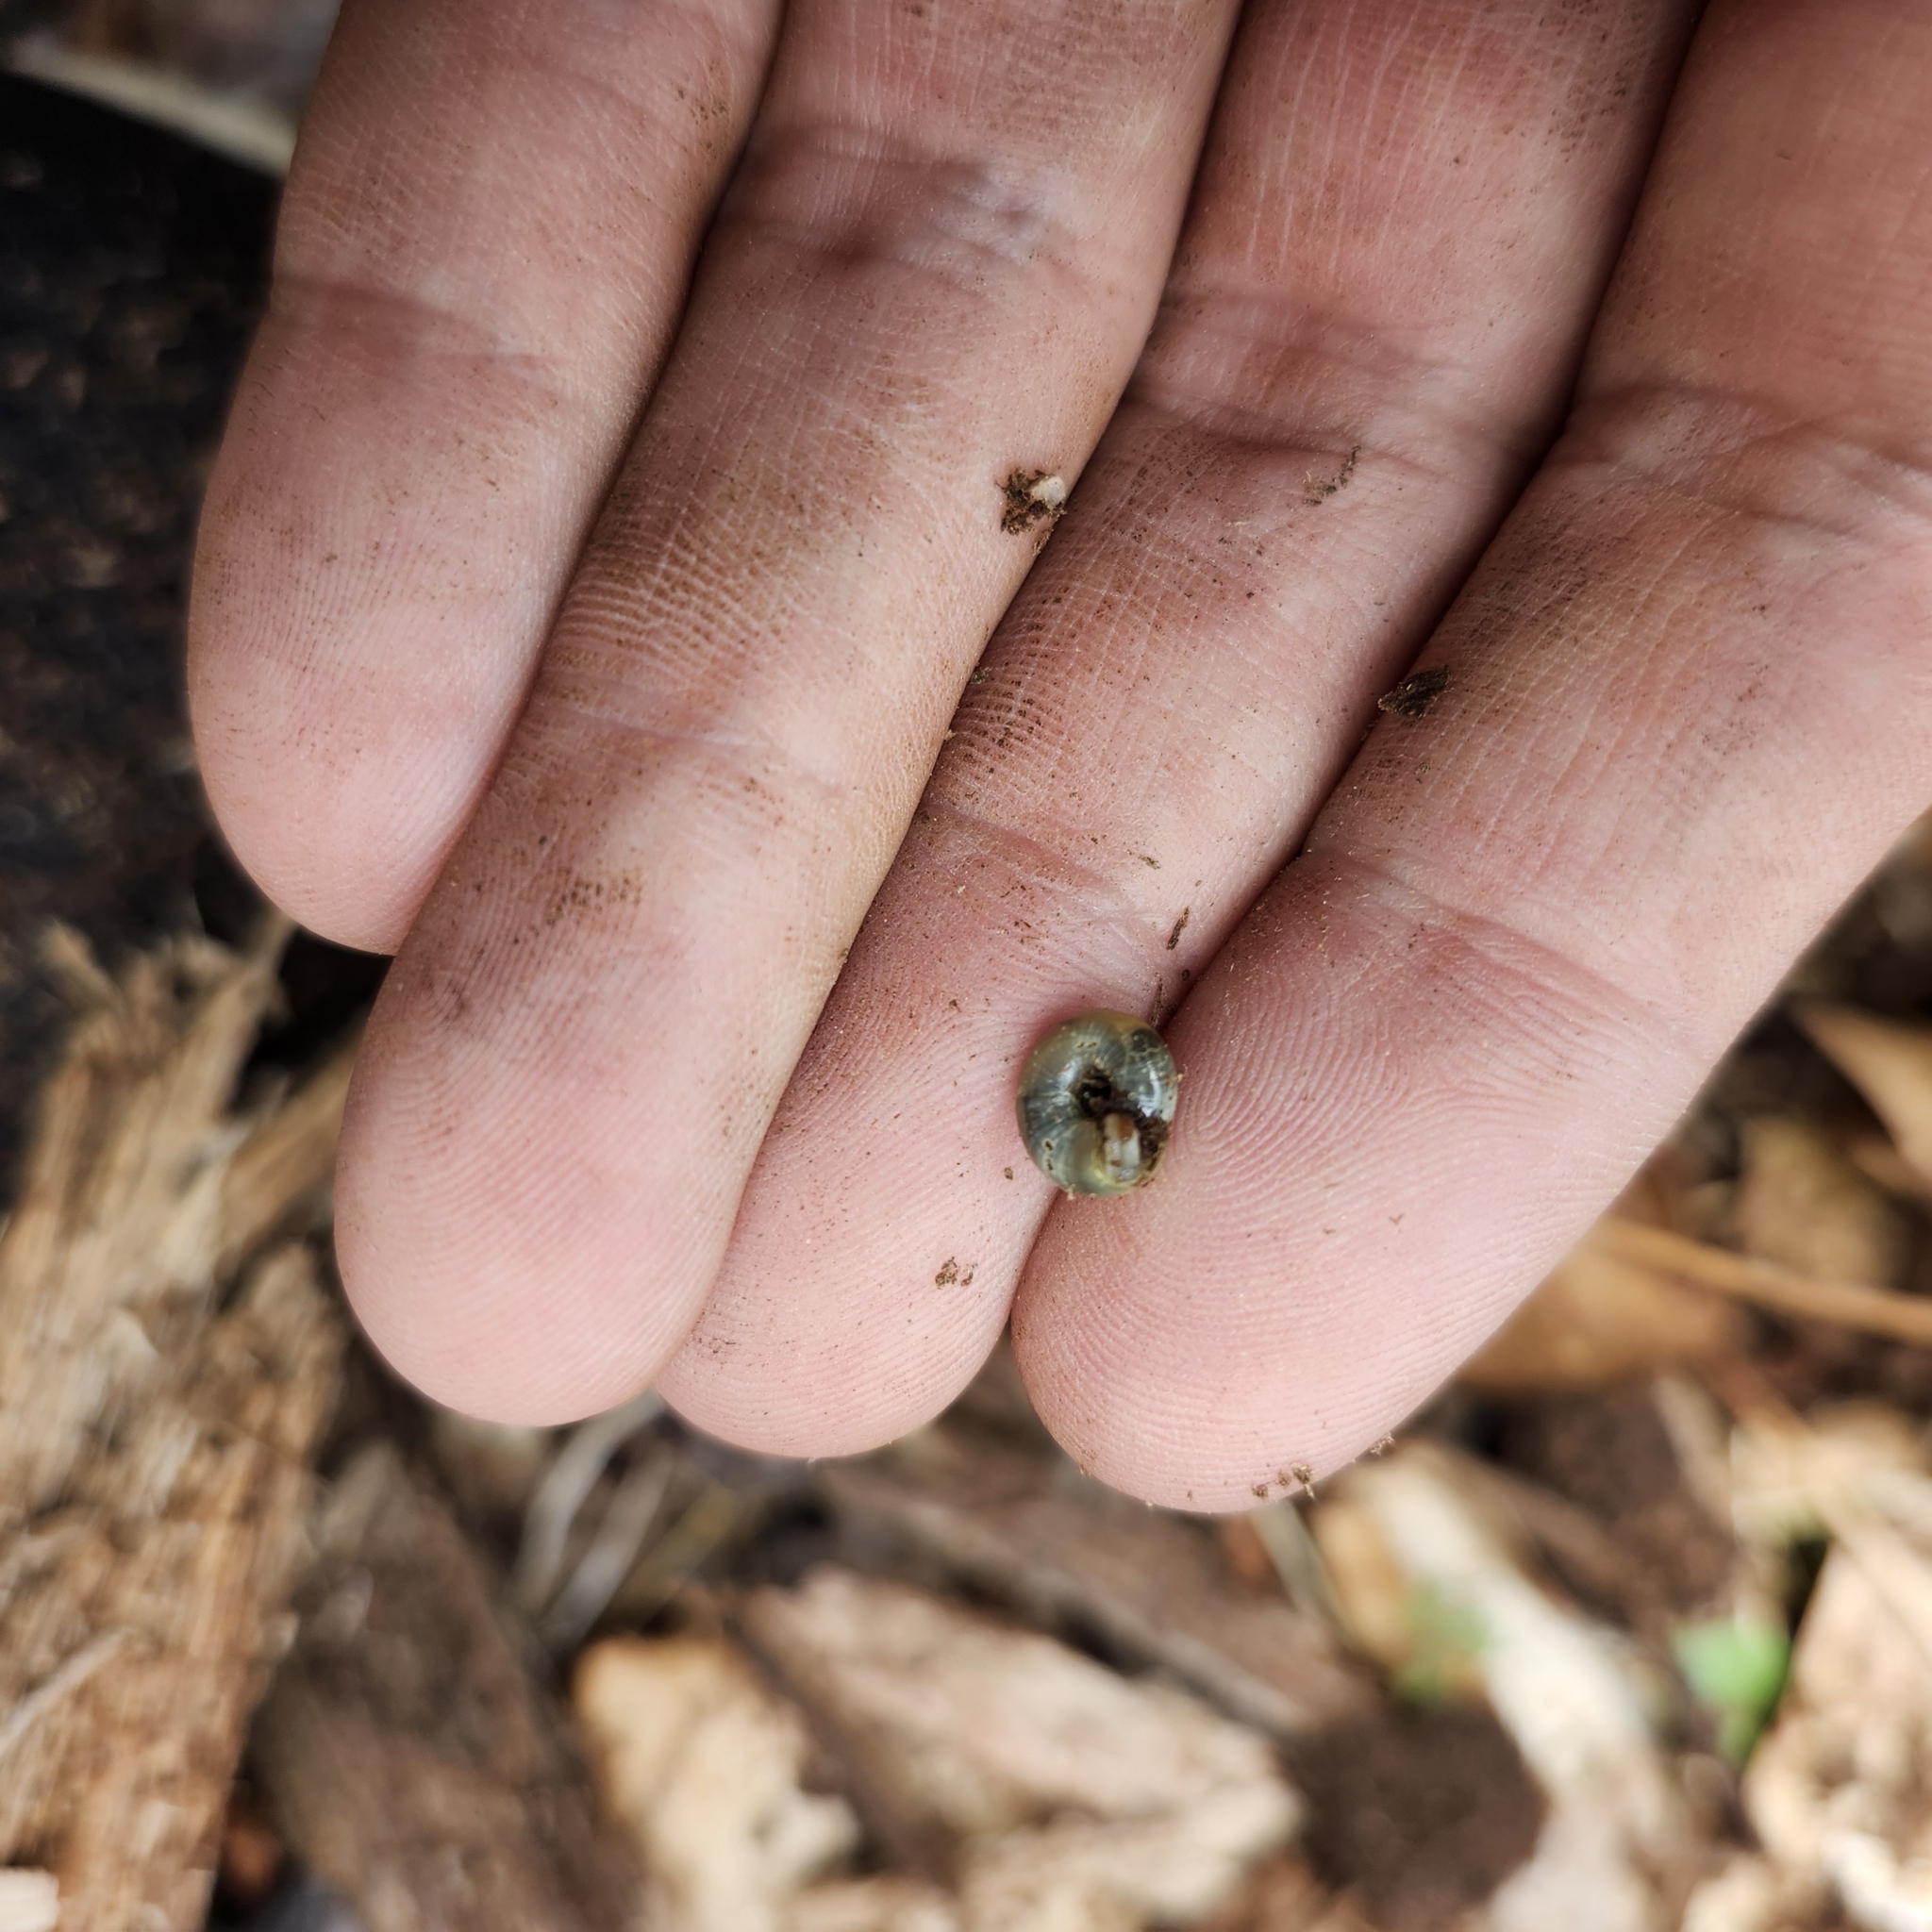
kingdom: Animalia
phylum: Mollusca
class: Gastropoda
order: Stylommatophora
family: Gastrodontidae
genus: Zonitoides
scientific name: Zonitoides elliotti
